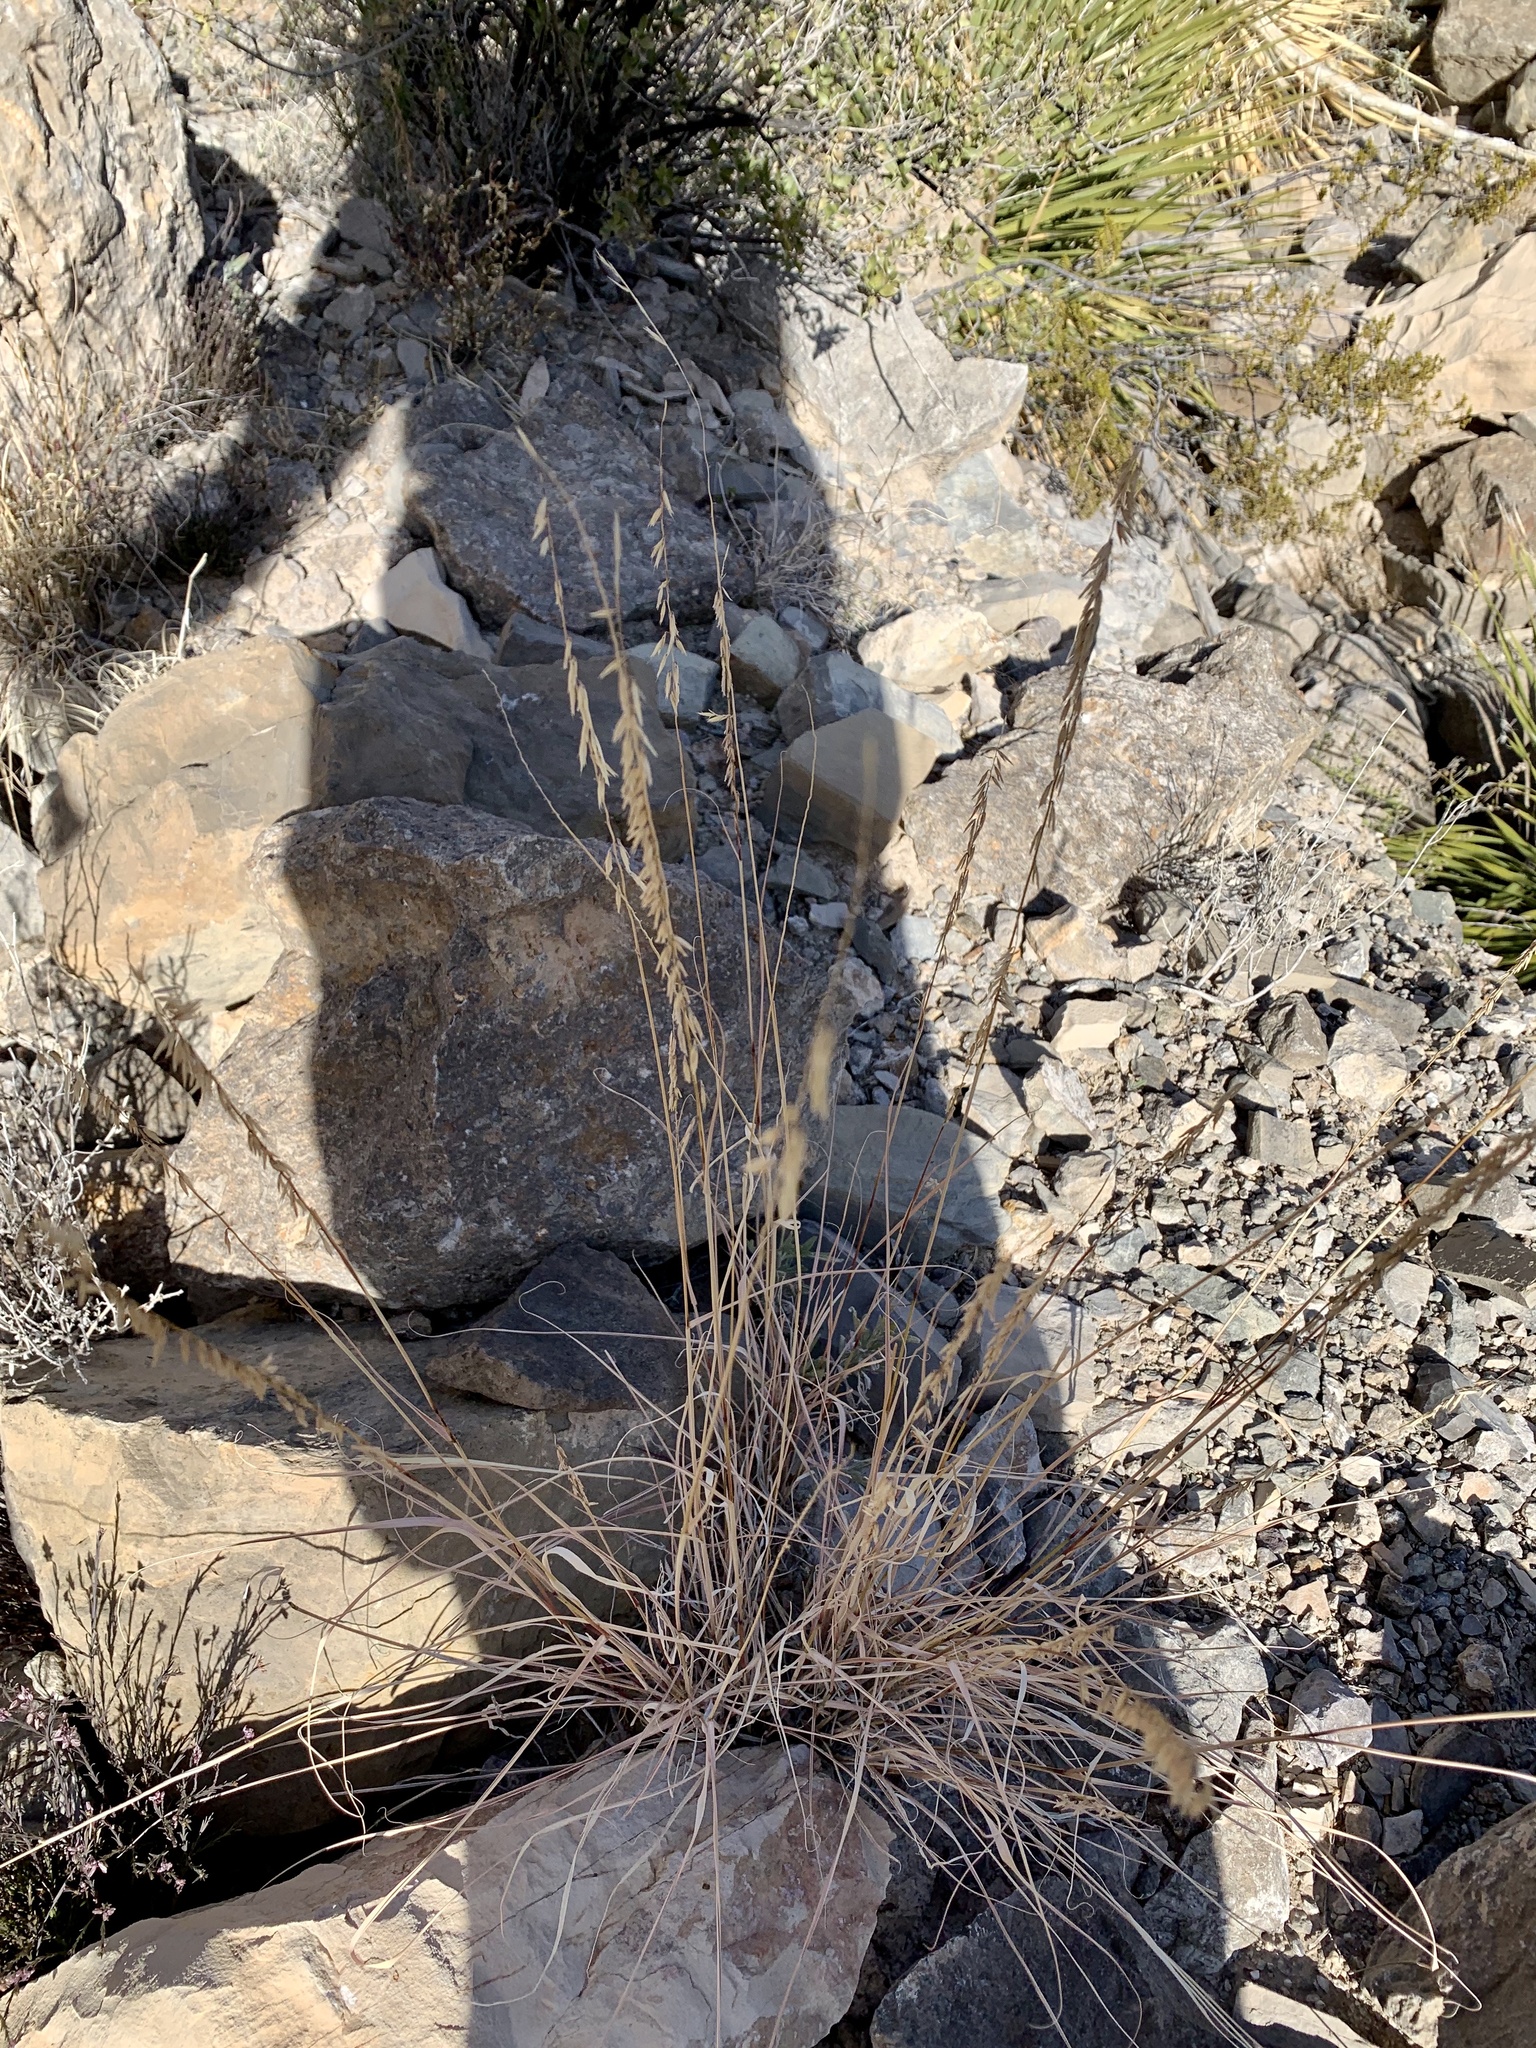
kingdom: Plantae
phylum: Tracheophyta
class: Liliopsida
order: Poales
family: Poaceae
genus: Bouteloua
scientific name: Bouteloua curtipendula
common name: Side-oats grama
